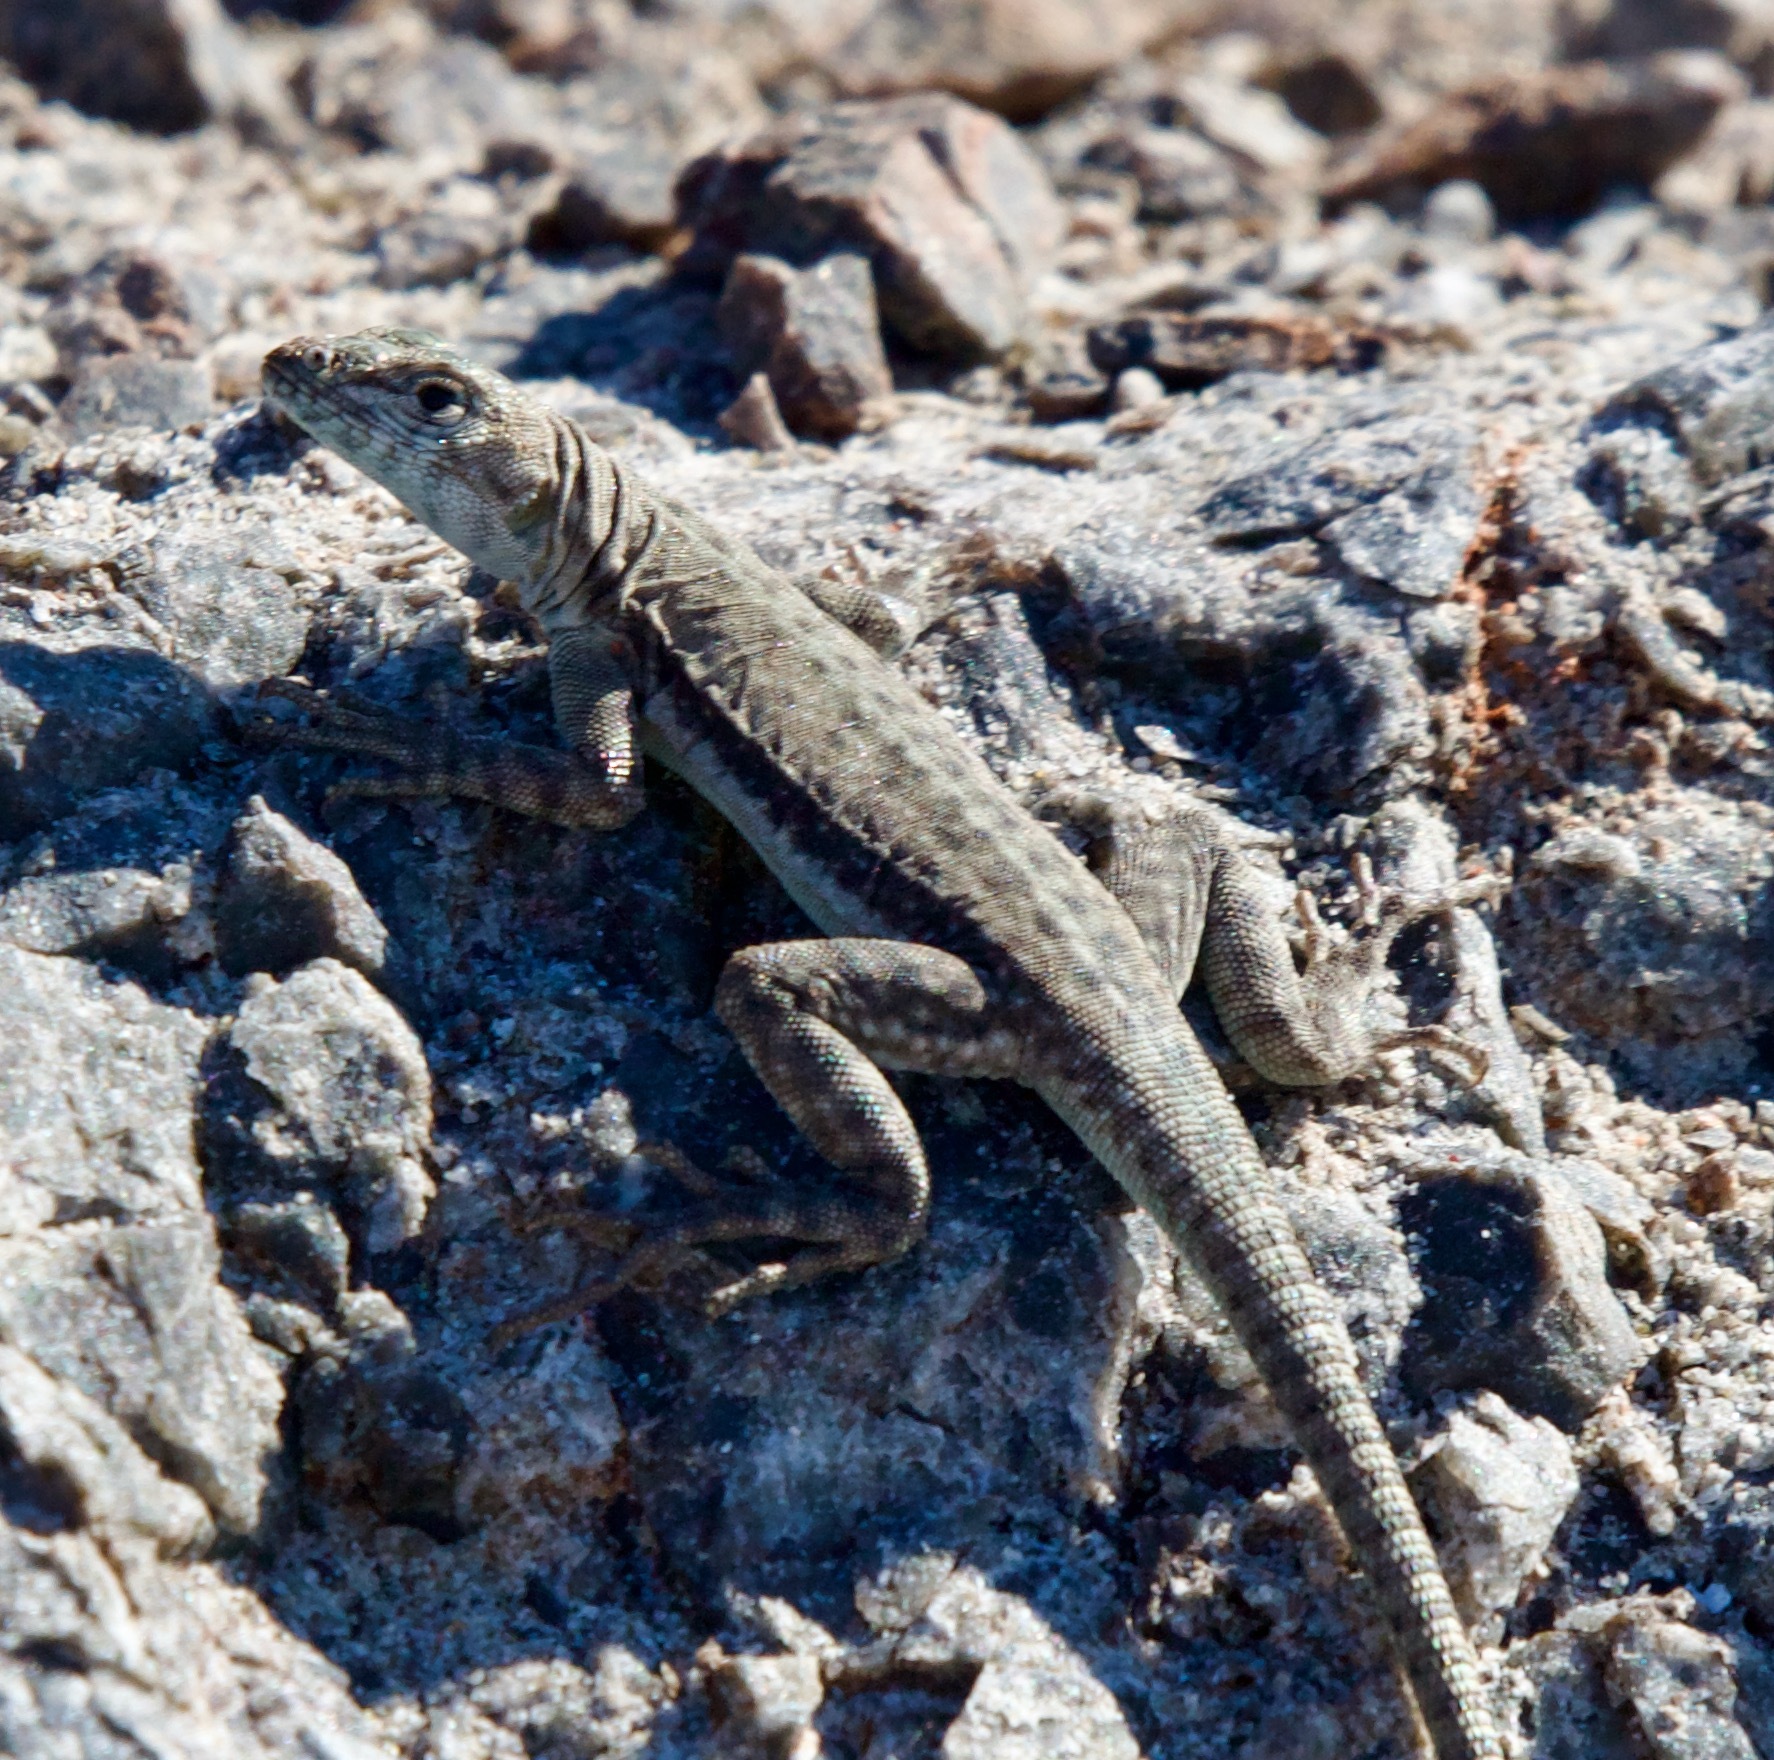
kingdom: Animalia
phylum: Chordata
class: Squamata
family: Tropiduridae
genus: Microlophus
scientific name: Microlophus atacamensis
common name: Atacamen pacific iguana
